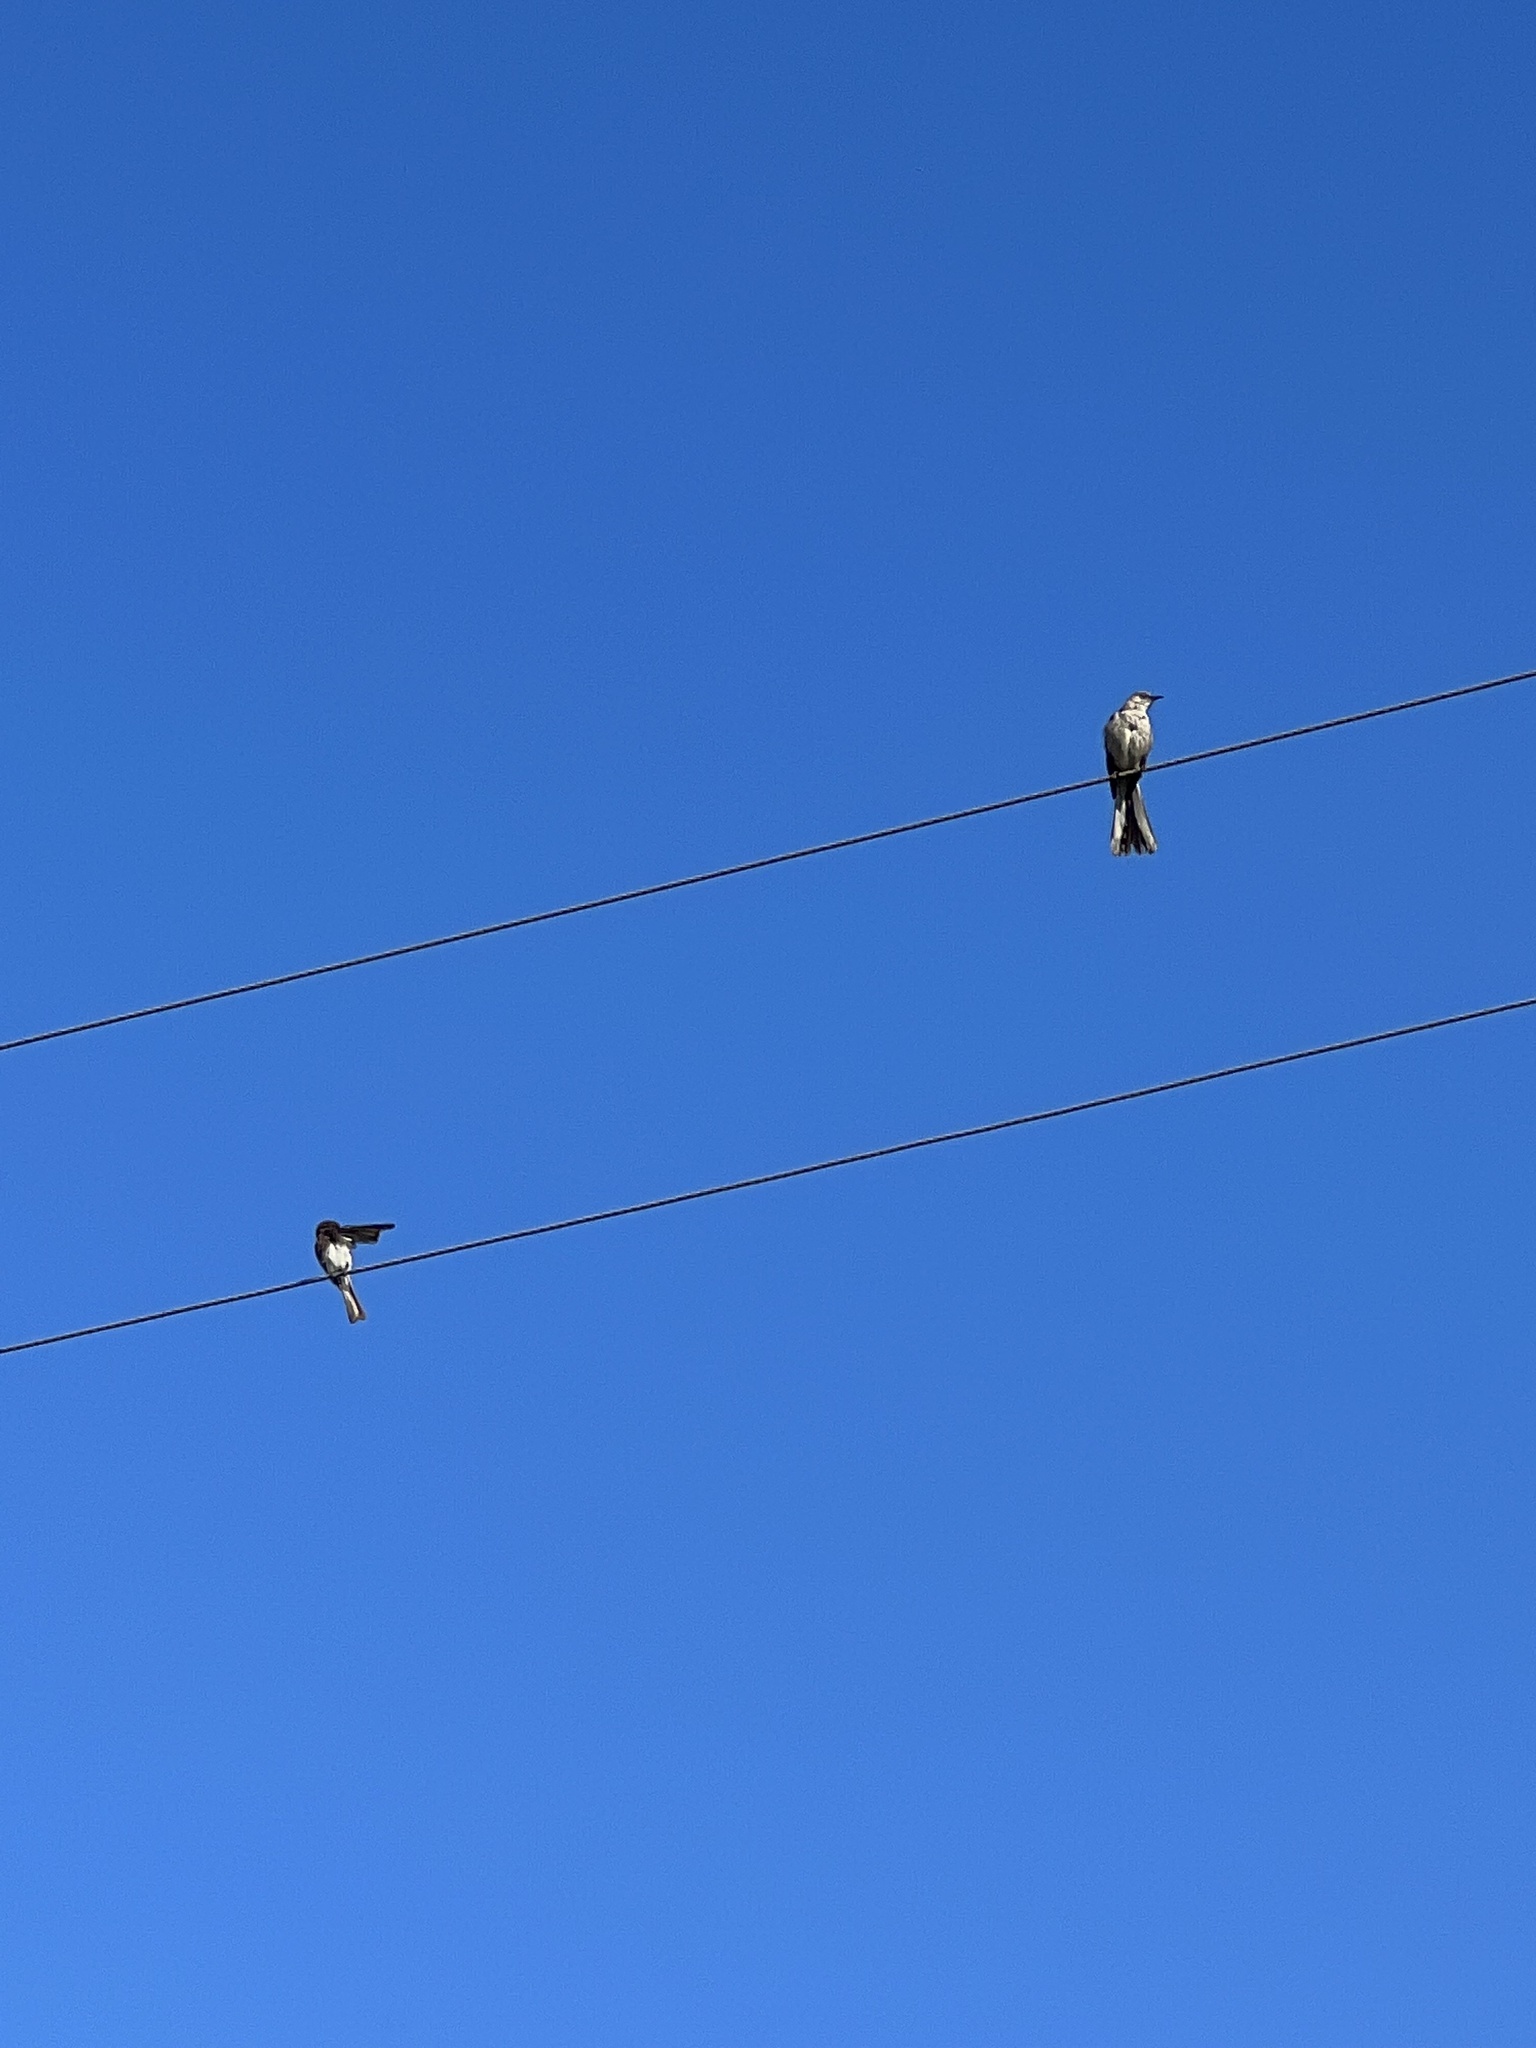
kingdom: Animalia
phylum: Chordata
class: Aves
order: Passeriformes
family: Tyrannidae
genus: Sayornis
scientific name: Sayornis nigricans
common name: Black phoebe
